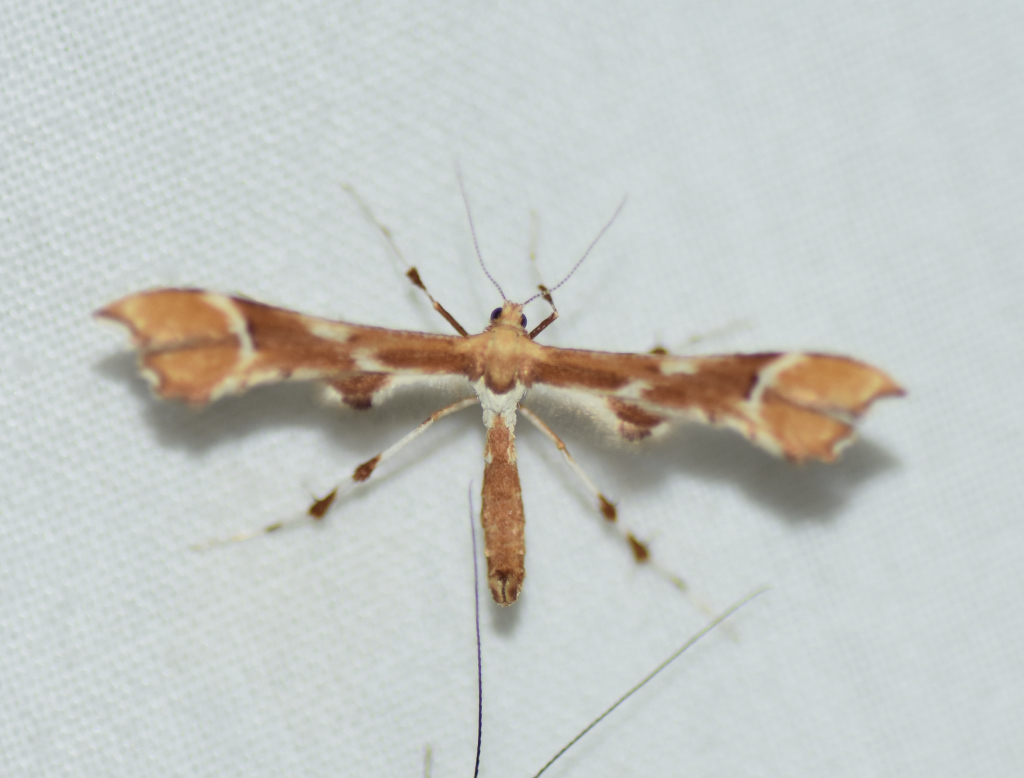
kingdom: Animalia
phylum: Arthropoda
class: Insecta
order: Lepidoptera
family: Pterophoridae
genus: Cnaemidophorus
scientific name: Cnaemidophorus rhododactyla
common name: Rose plume
